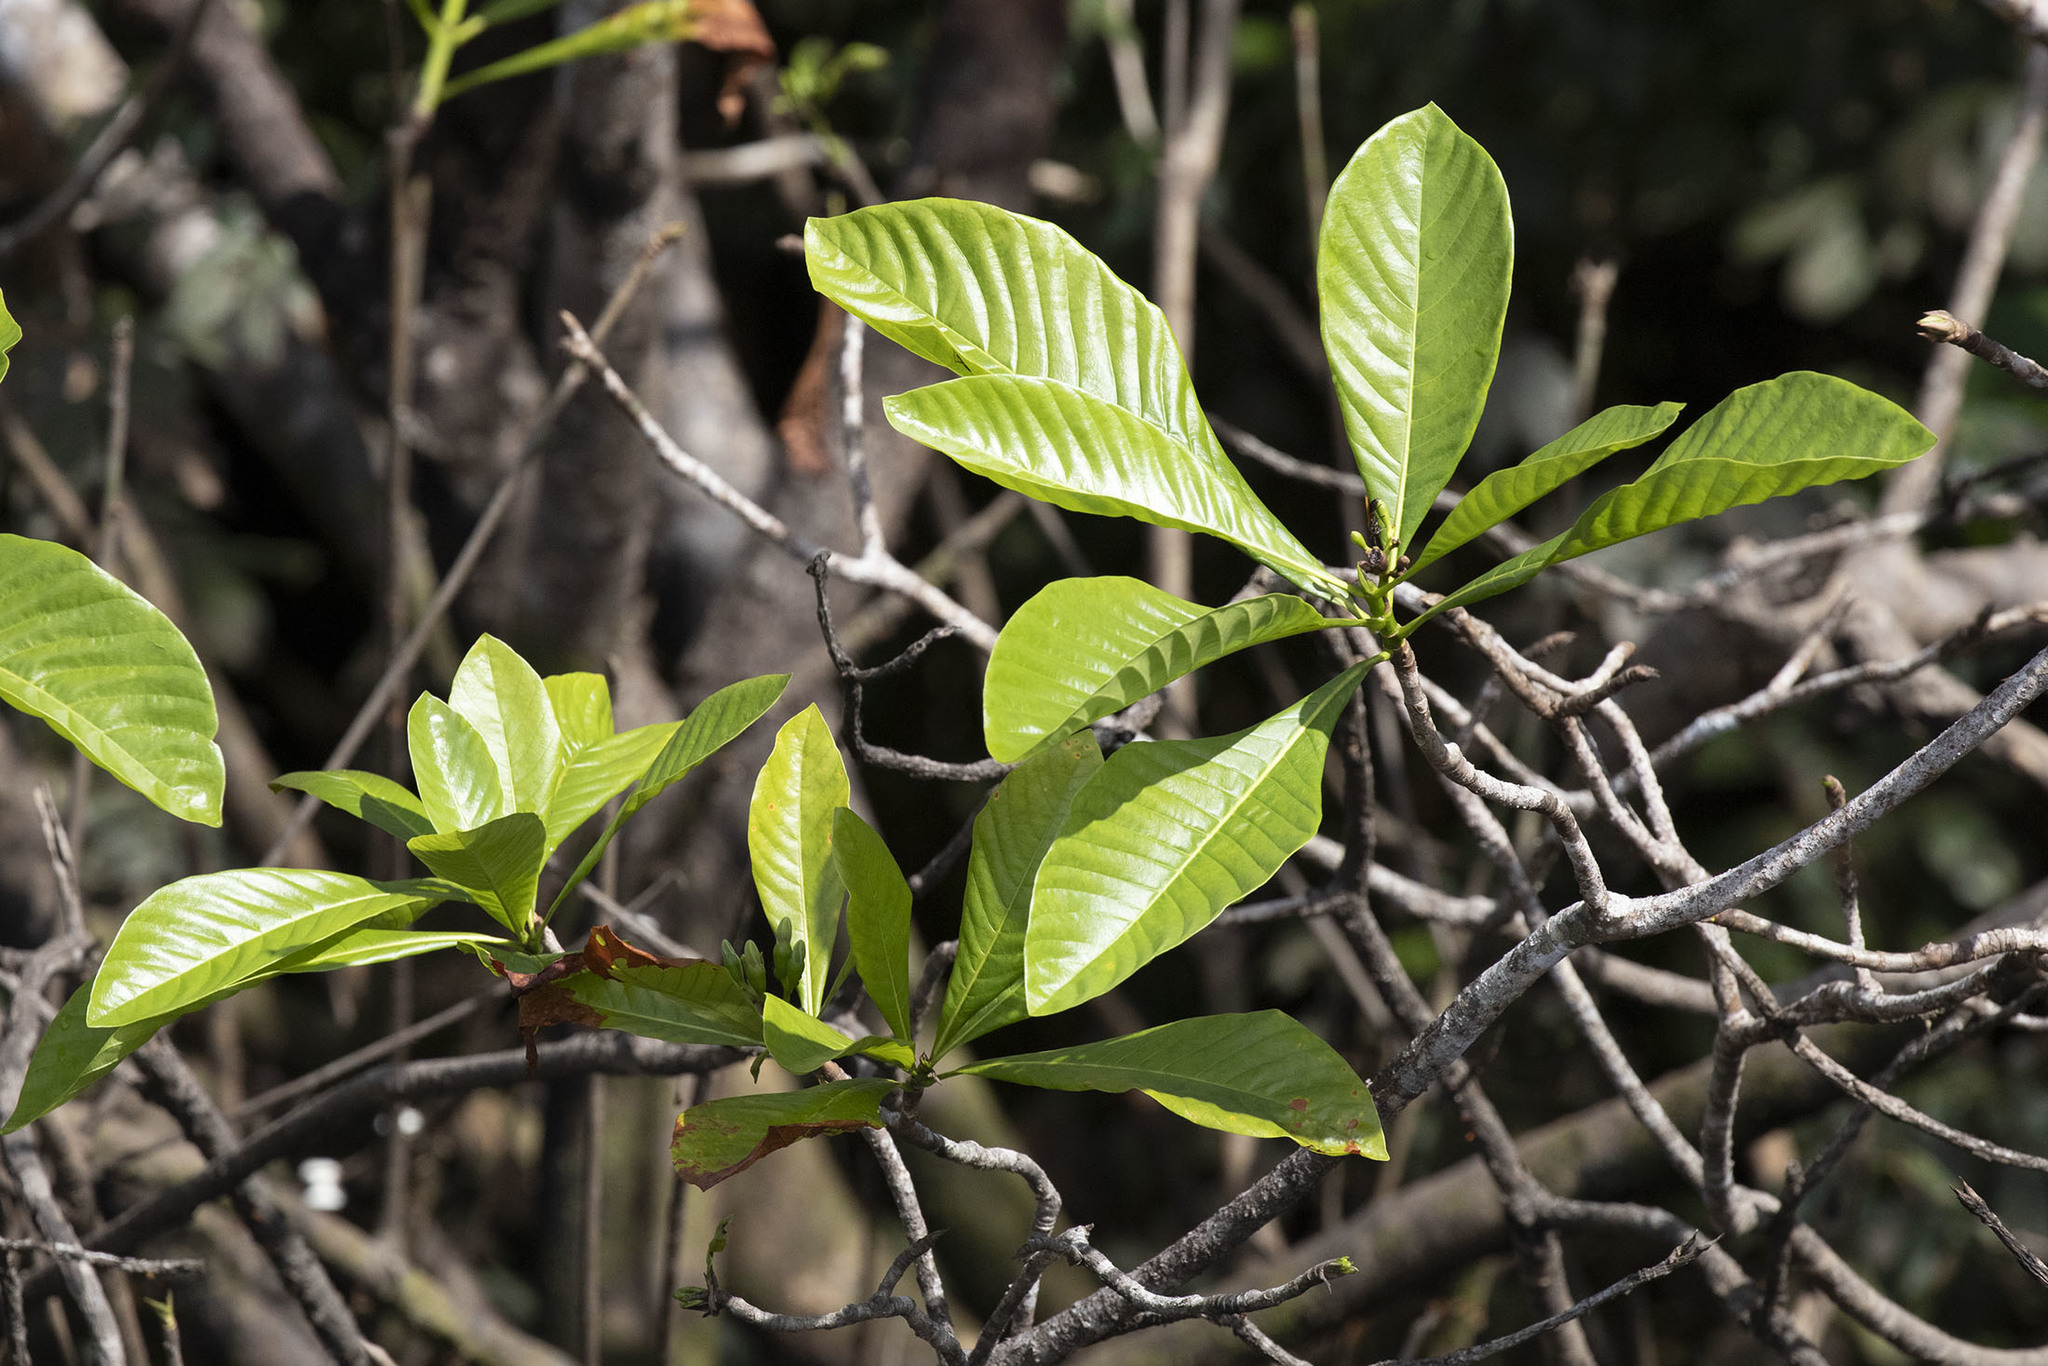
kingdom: Plantae
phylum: Tracheophyta
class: Magnoliopsida
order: Gentianales
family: Rubiaceae
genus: Genipa
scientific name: Genipa americana
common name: Genipap
